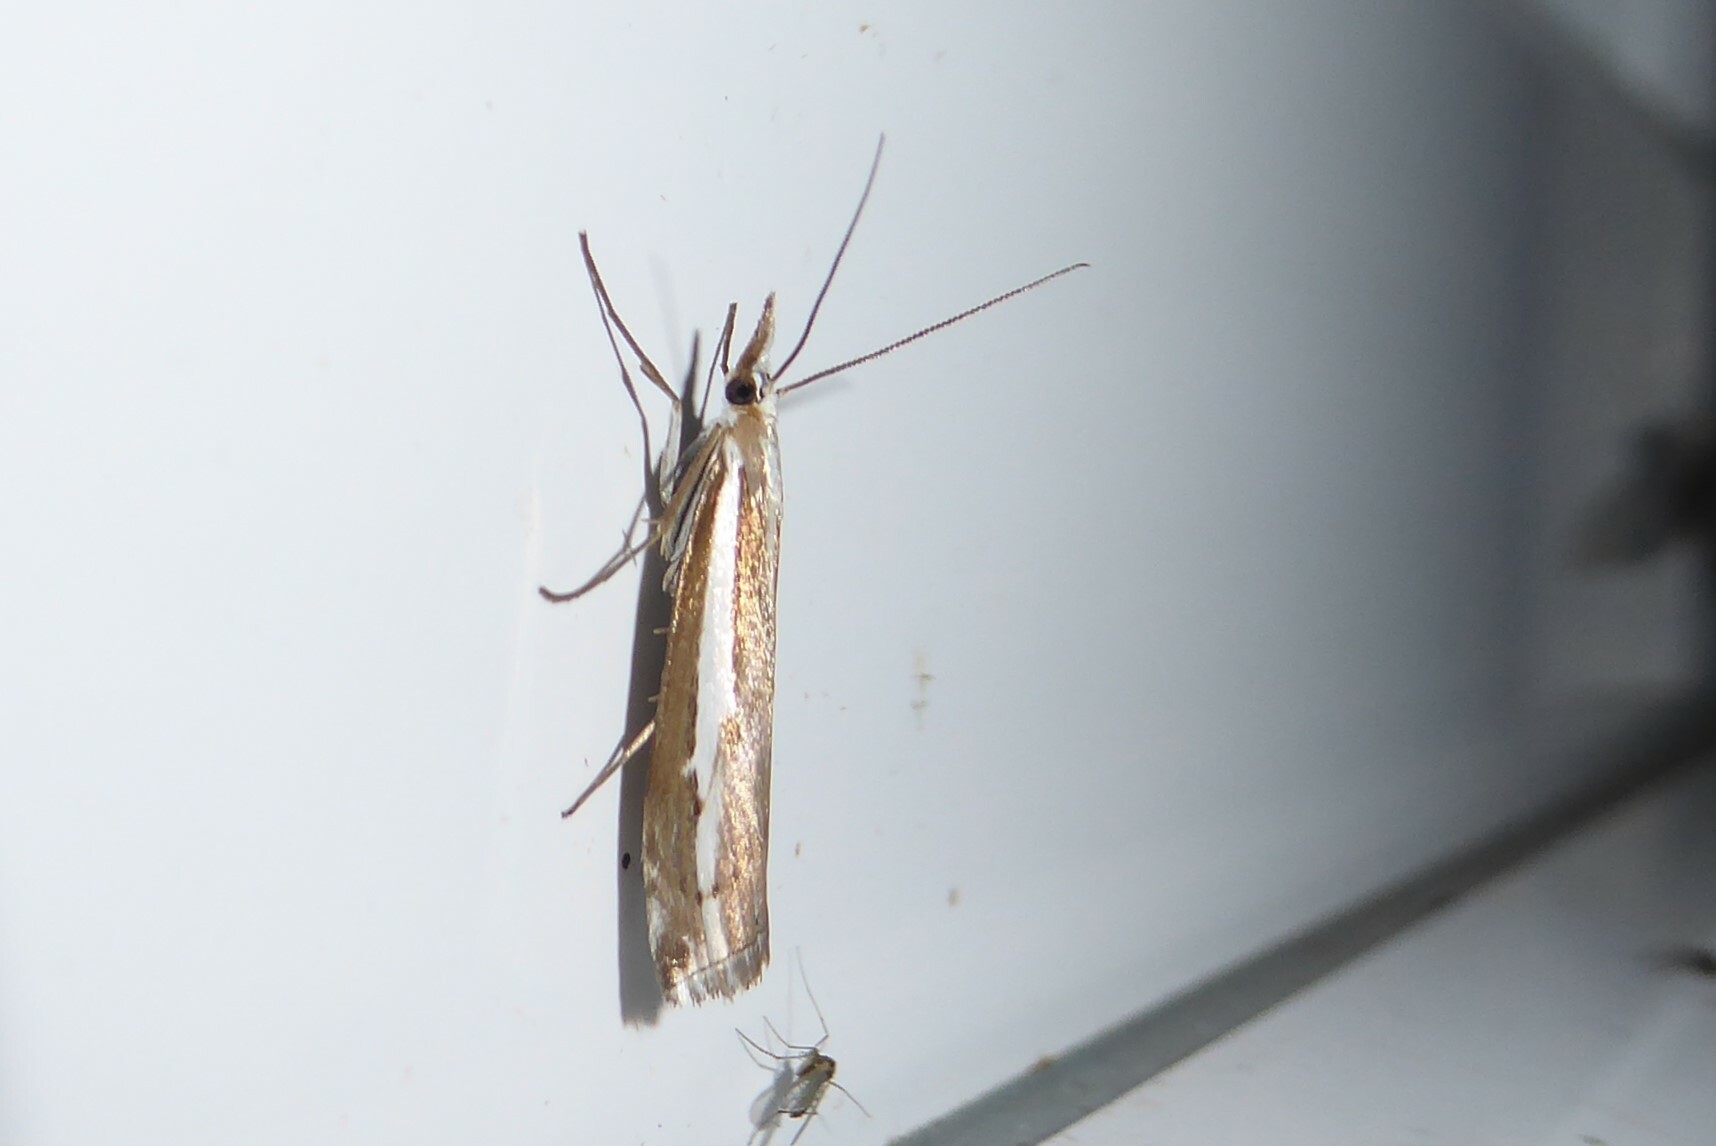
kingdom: Animalia
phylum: Arthropoda
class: Insecta
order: Lepidoptera
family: Crambidae
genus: Orocrambus
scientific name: Orocrambus vittellus
